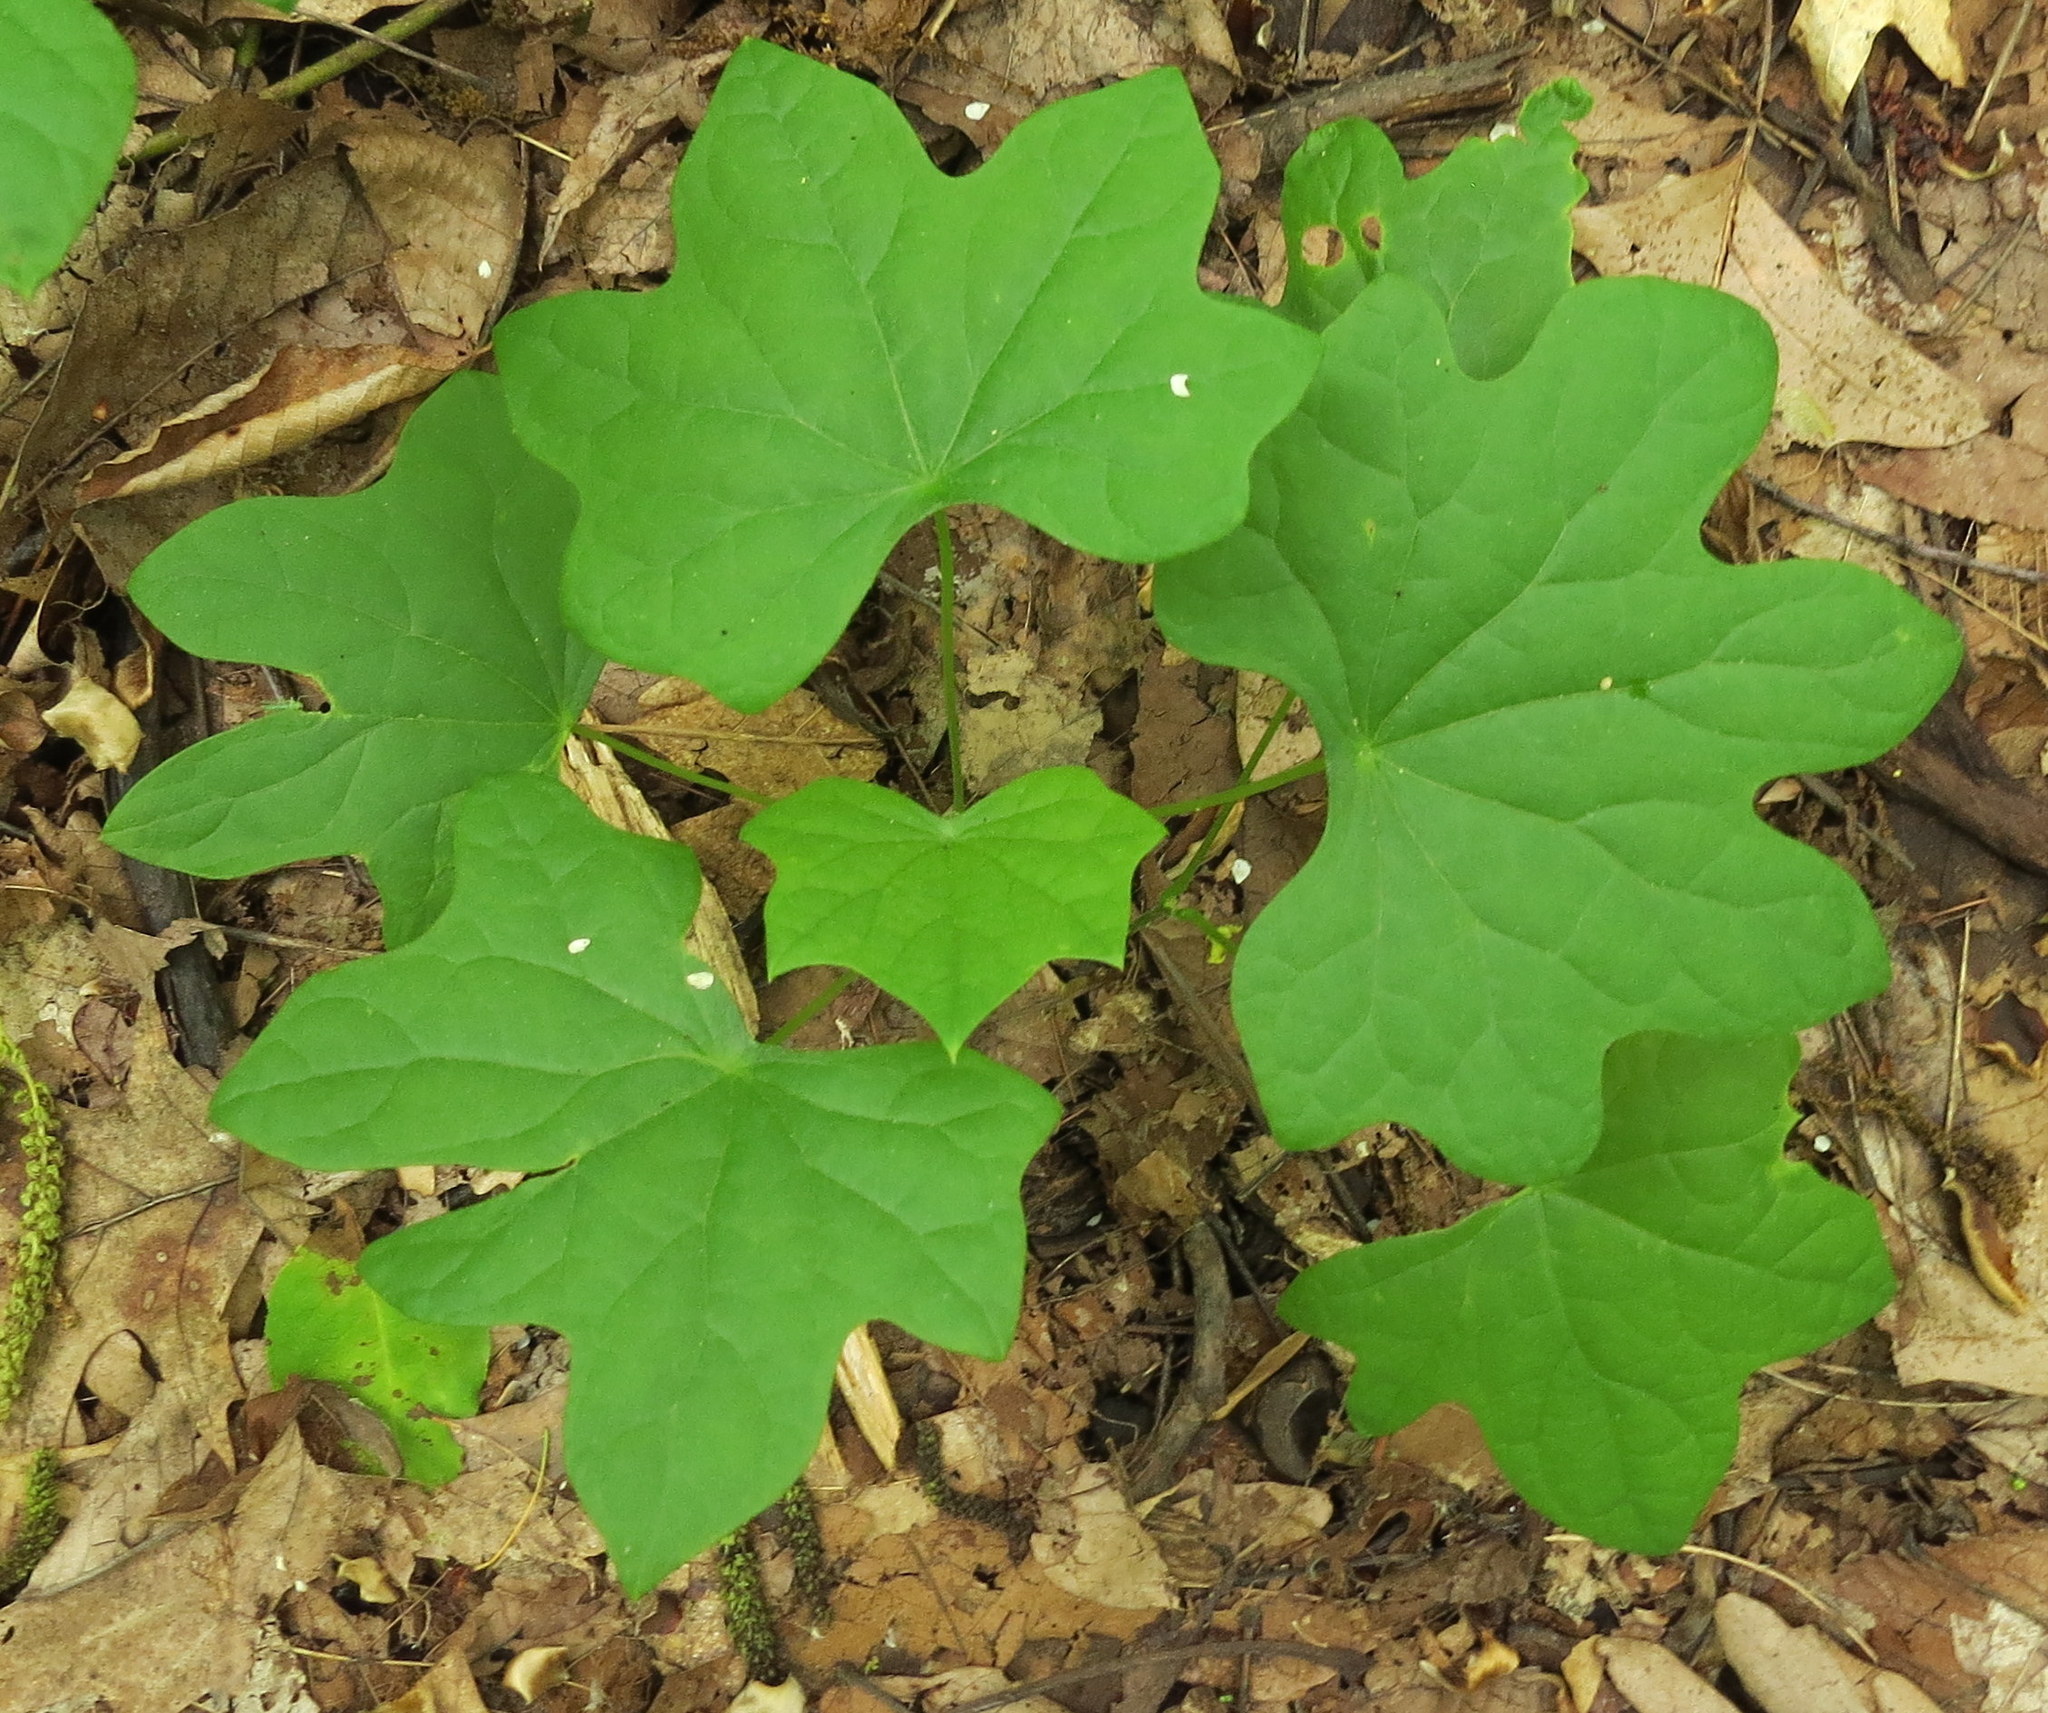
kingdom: Plantae
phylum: Tracheophyta
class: Magnoliopsida
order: Ranunculales
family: Menispermaceae
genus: Menispermum
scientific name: Menispermum canadense
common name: Moonseed
